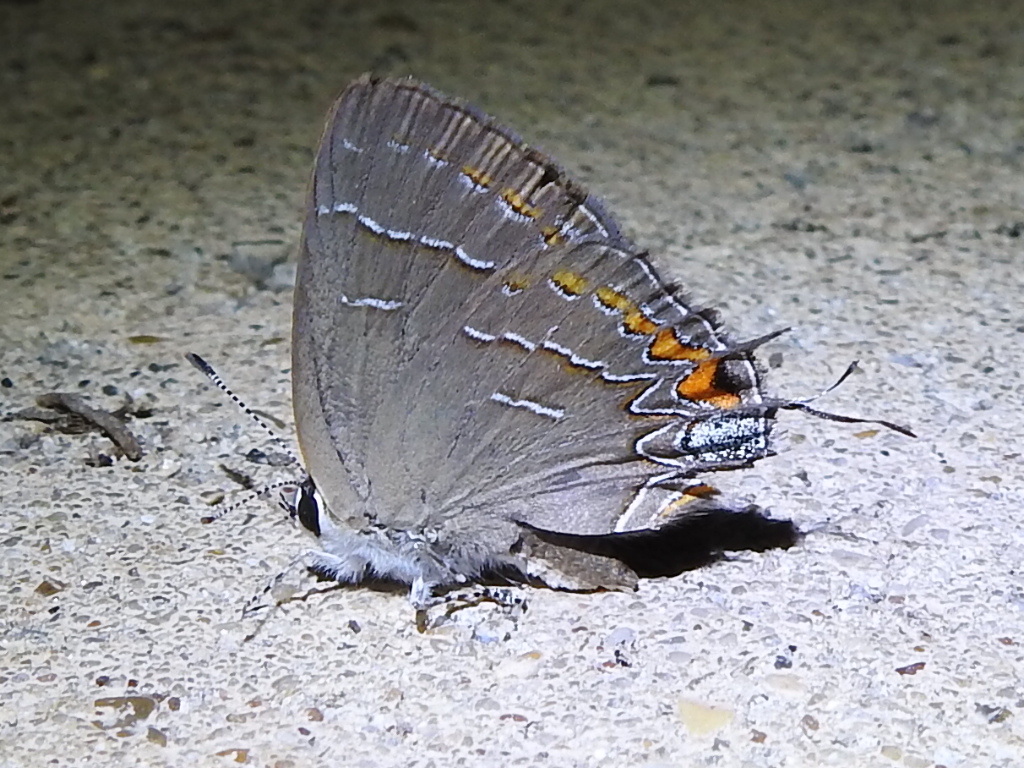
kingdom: Animalia
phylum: Arthropoda
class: Insecta
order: Lepidoptera
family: Lycaenidae
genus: Phaeostrymon
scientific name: Phaeostrymon alcestis
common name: Soapberry hairstreak
